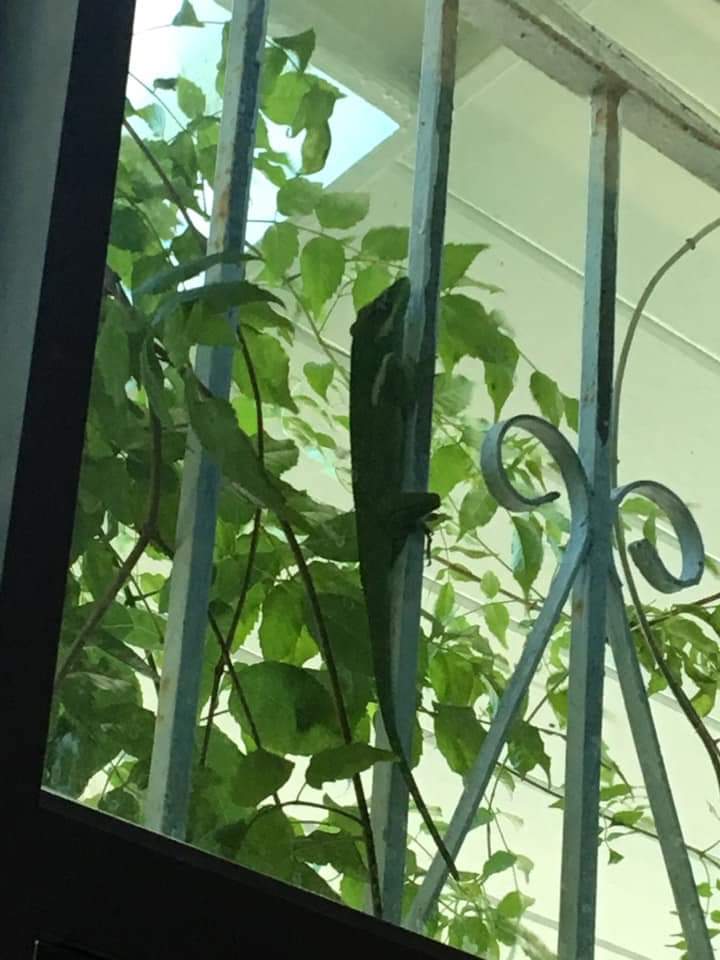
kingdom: Animalia
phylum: Chordata
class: Squamata
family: Dactyloidae
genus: Anolis
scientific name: Anolis equestris
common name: Knight anole
